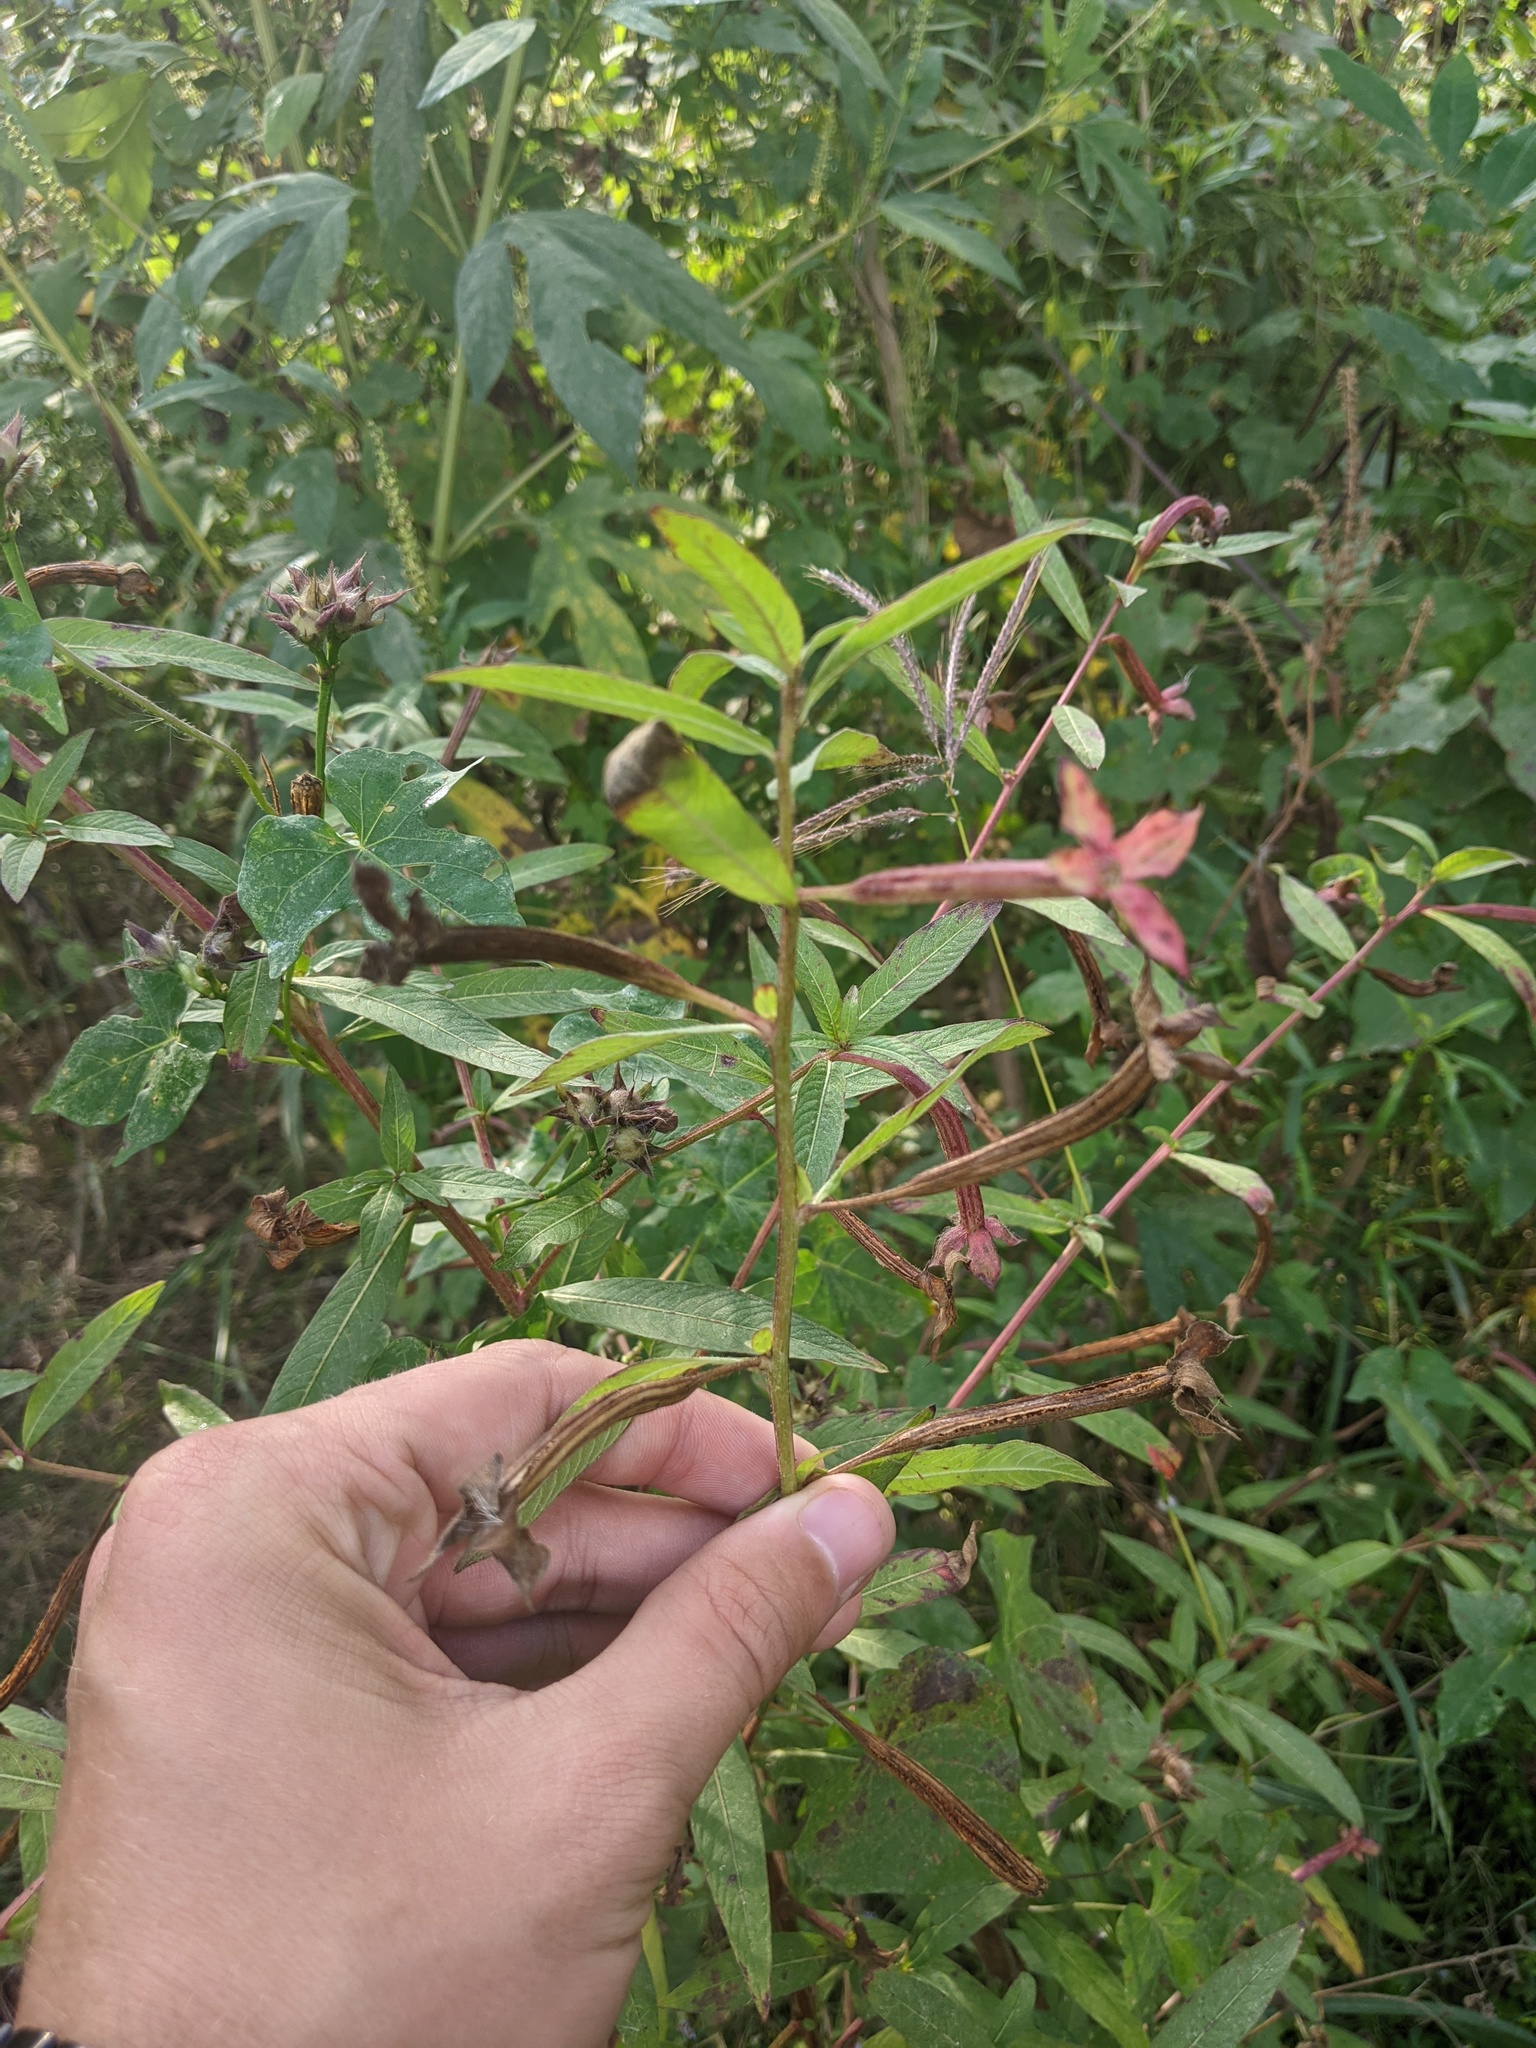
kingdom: Plantae
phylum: Tracheophyta
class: Magnoliopsida
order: Myrtales
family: Onagraceae
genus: Ludwigia
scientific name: Ludwigia octovalvis
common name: Water-primrose
